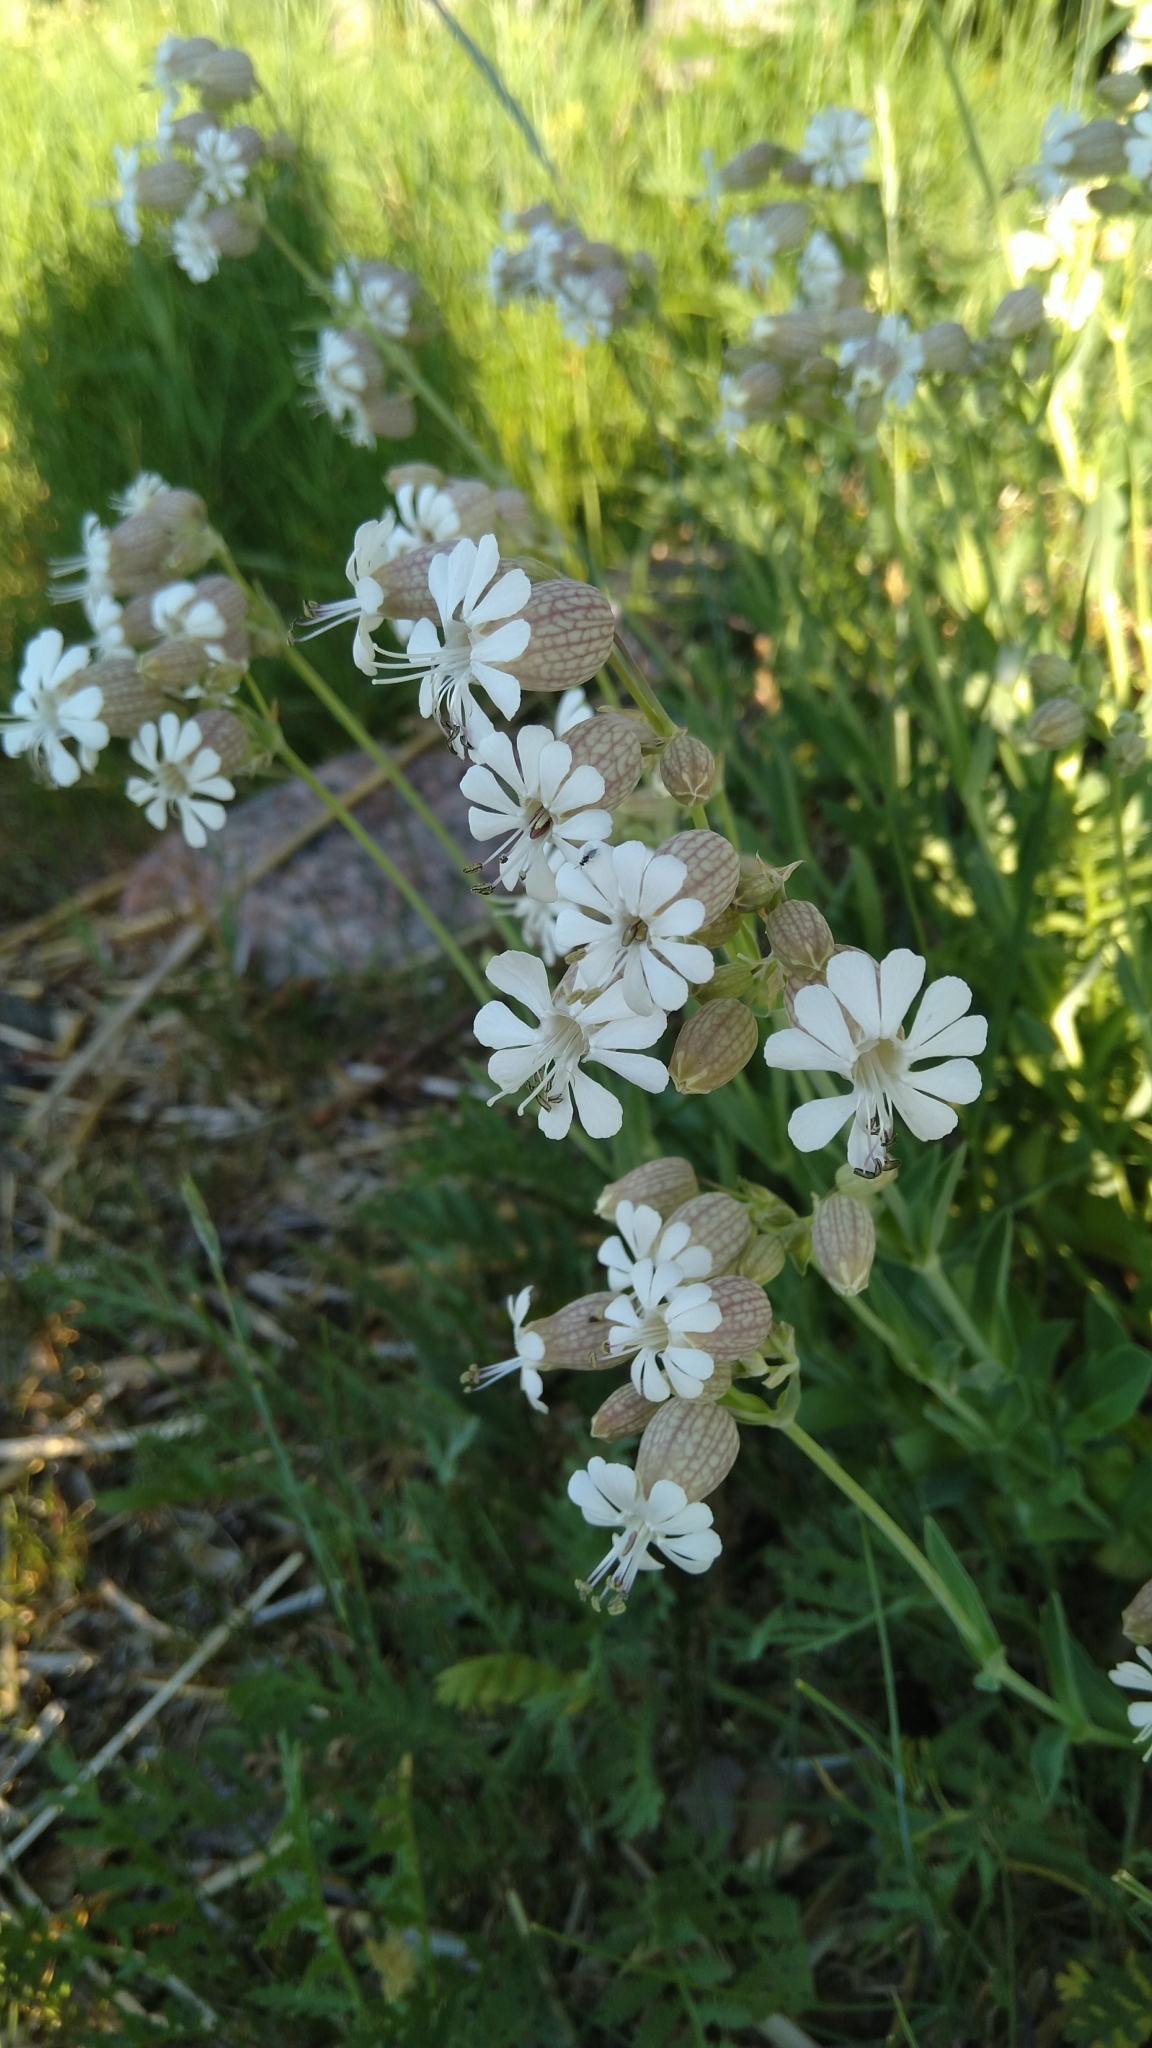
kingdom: Plantae
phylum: Tracheophyta
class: Magnoliopsida
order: Caryophyllales
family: Caryophyllaceae
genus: Silene
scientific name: Silene vulgaris
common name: Bladder campion
